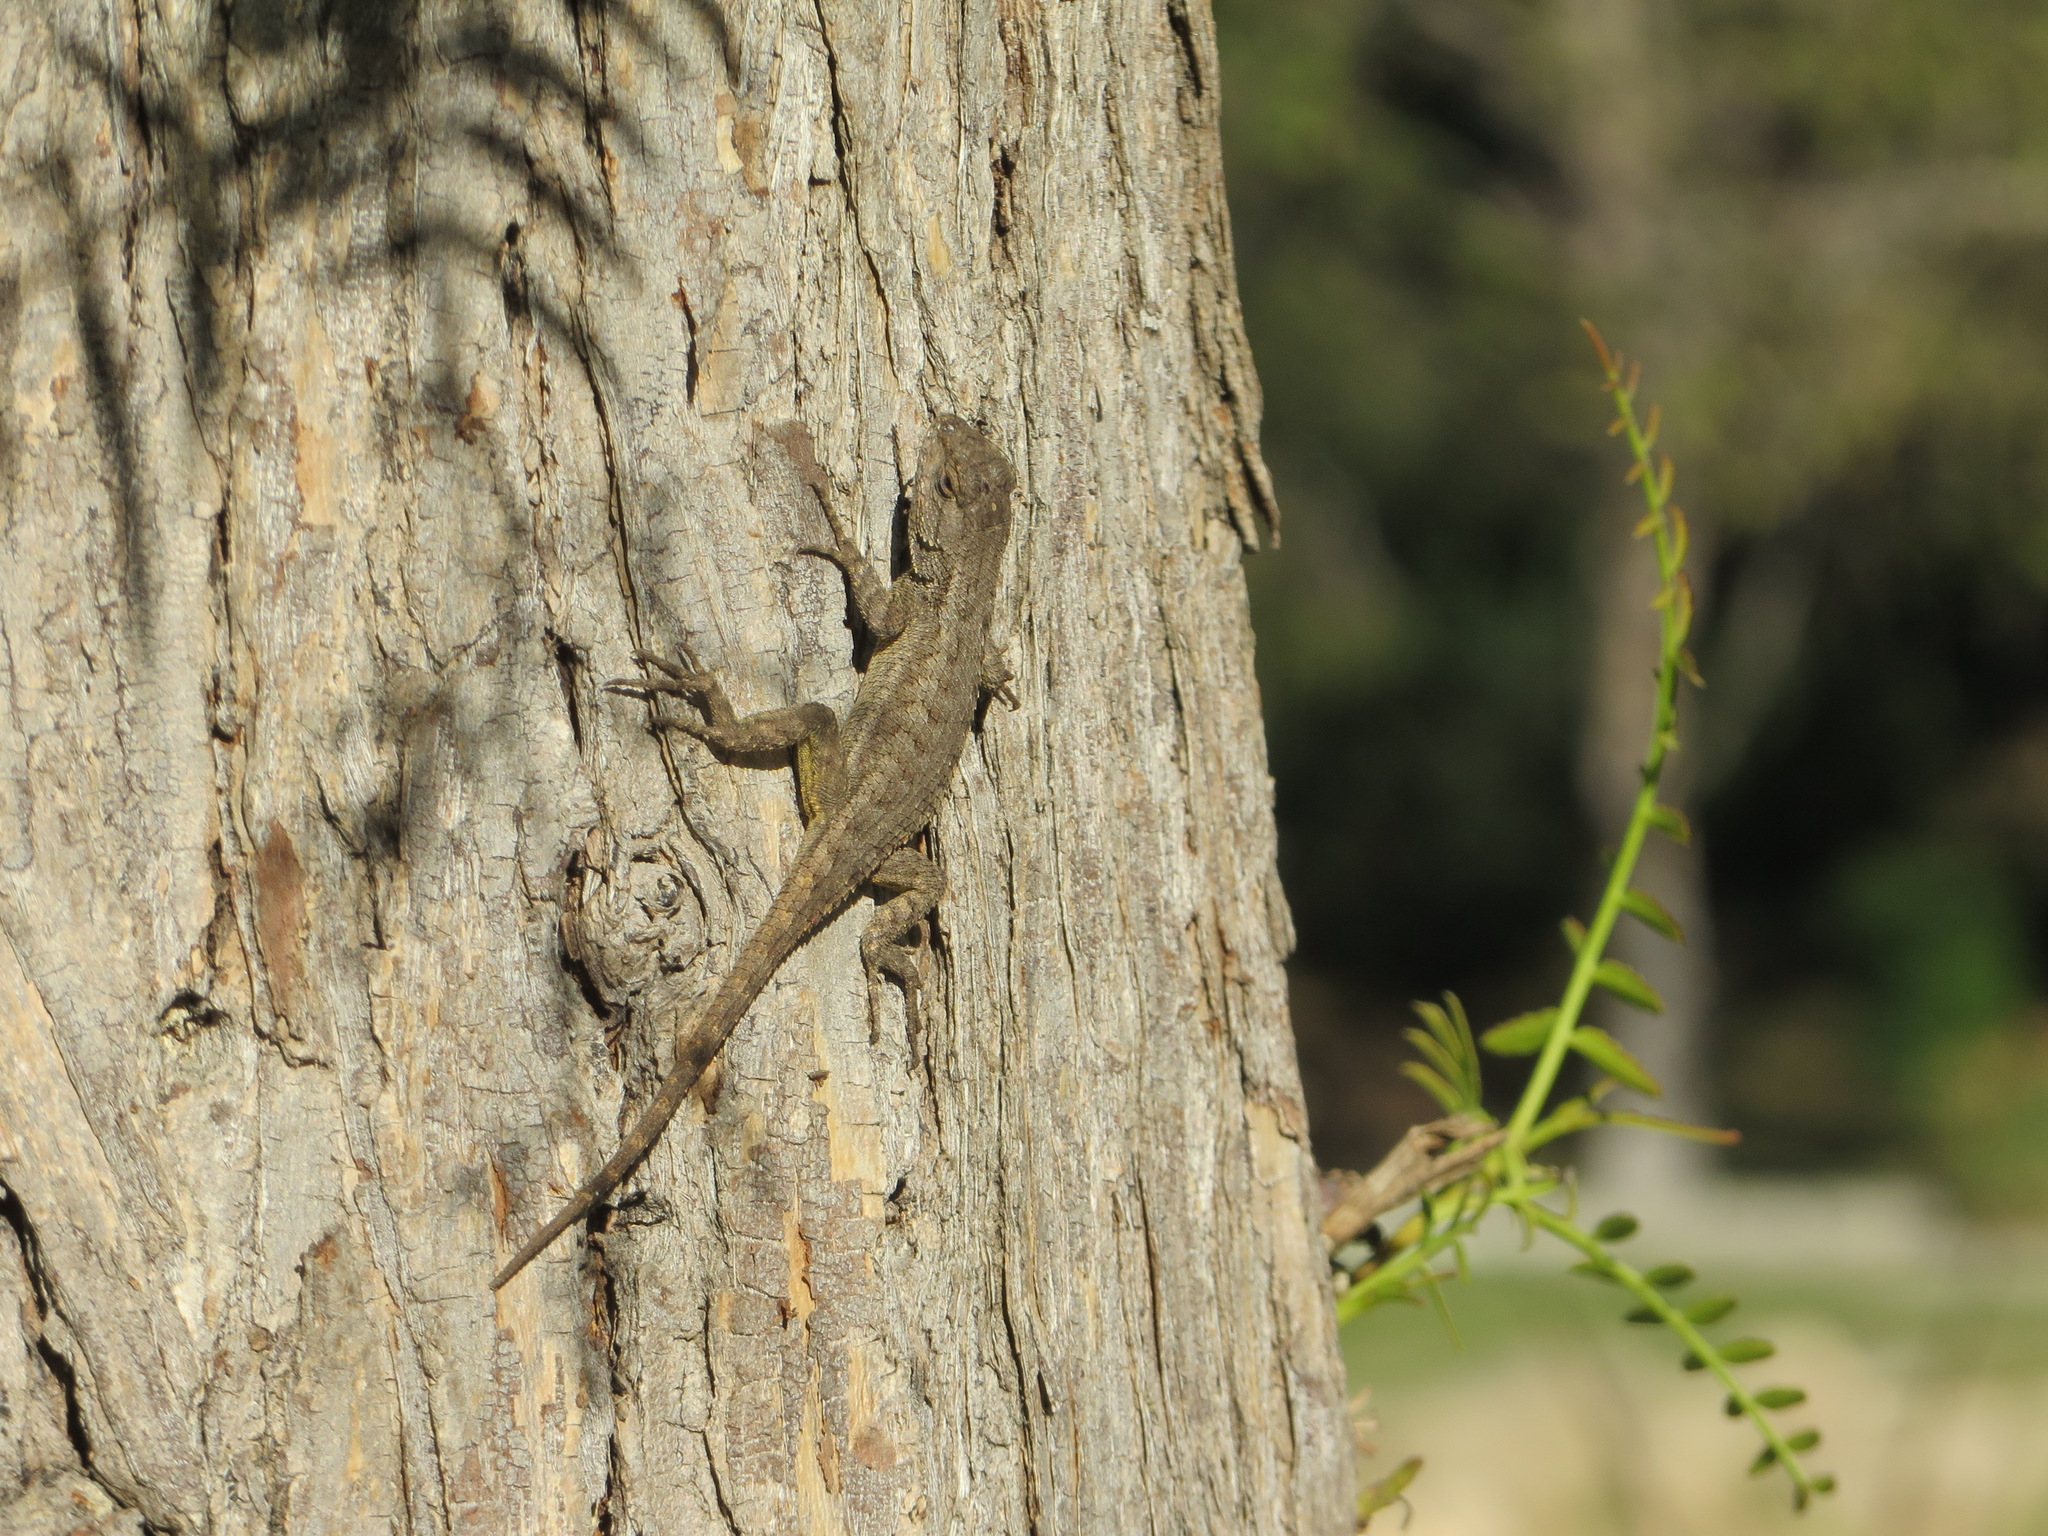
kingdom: Animalia
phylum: Chordata
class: Squamata
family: Phrynosomatidae
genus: Sceloporus
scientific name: Sceloporus occidentalis
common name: Western fence lizard
